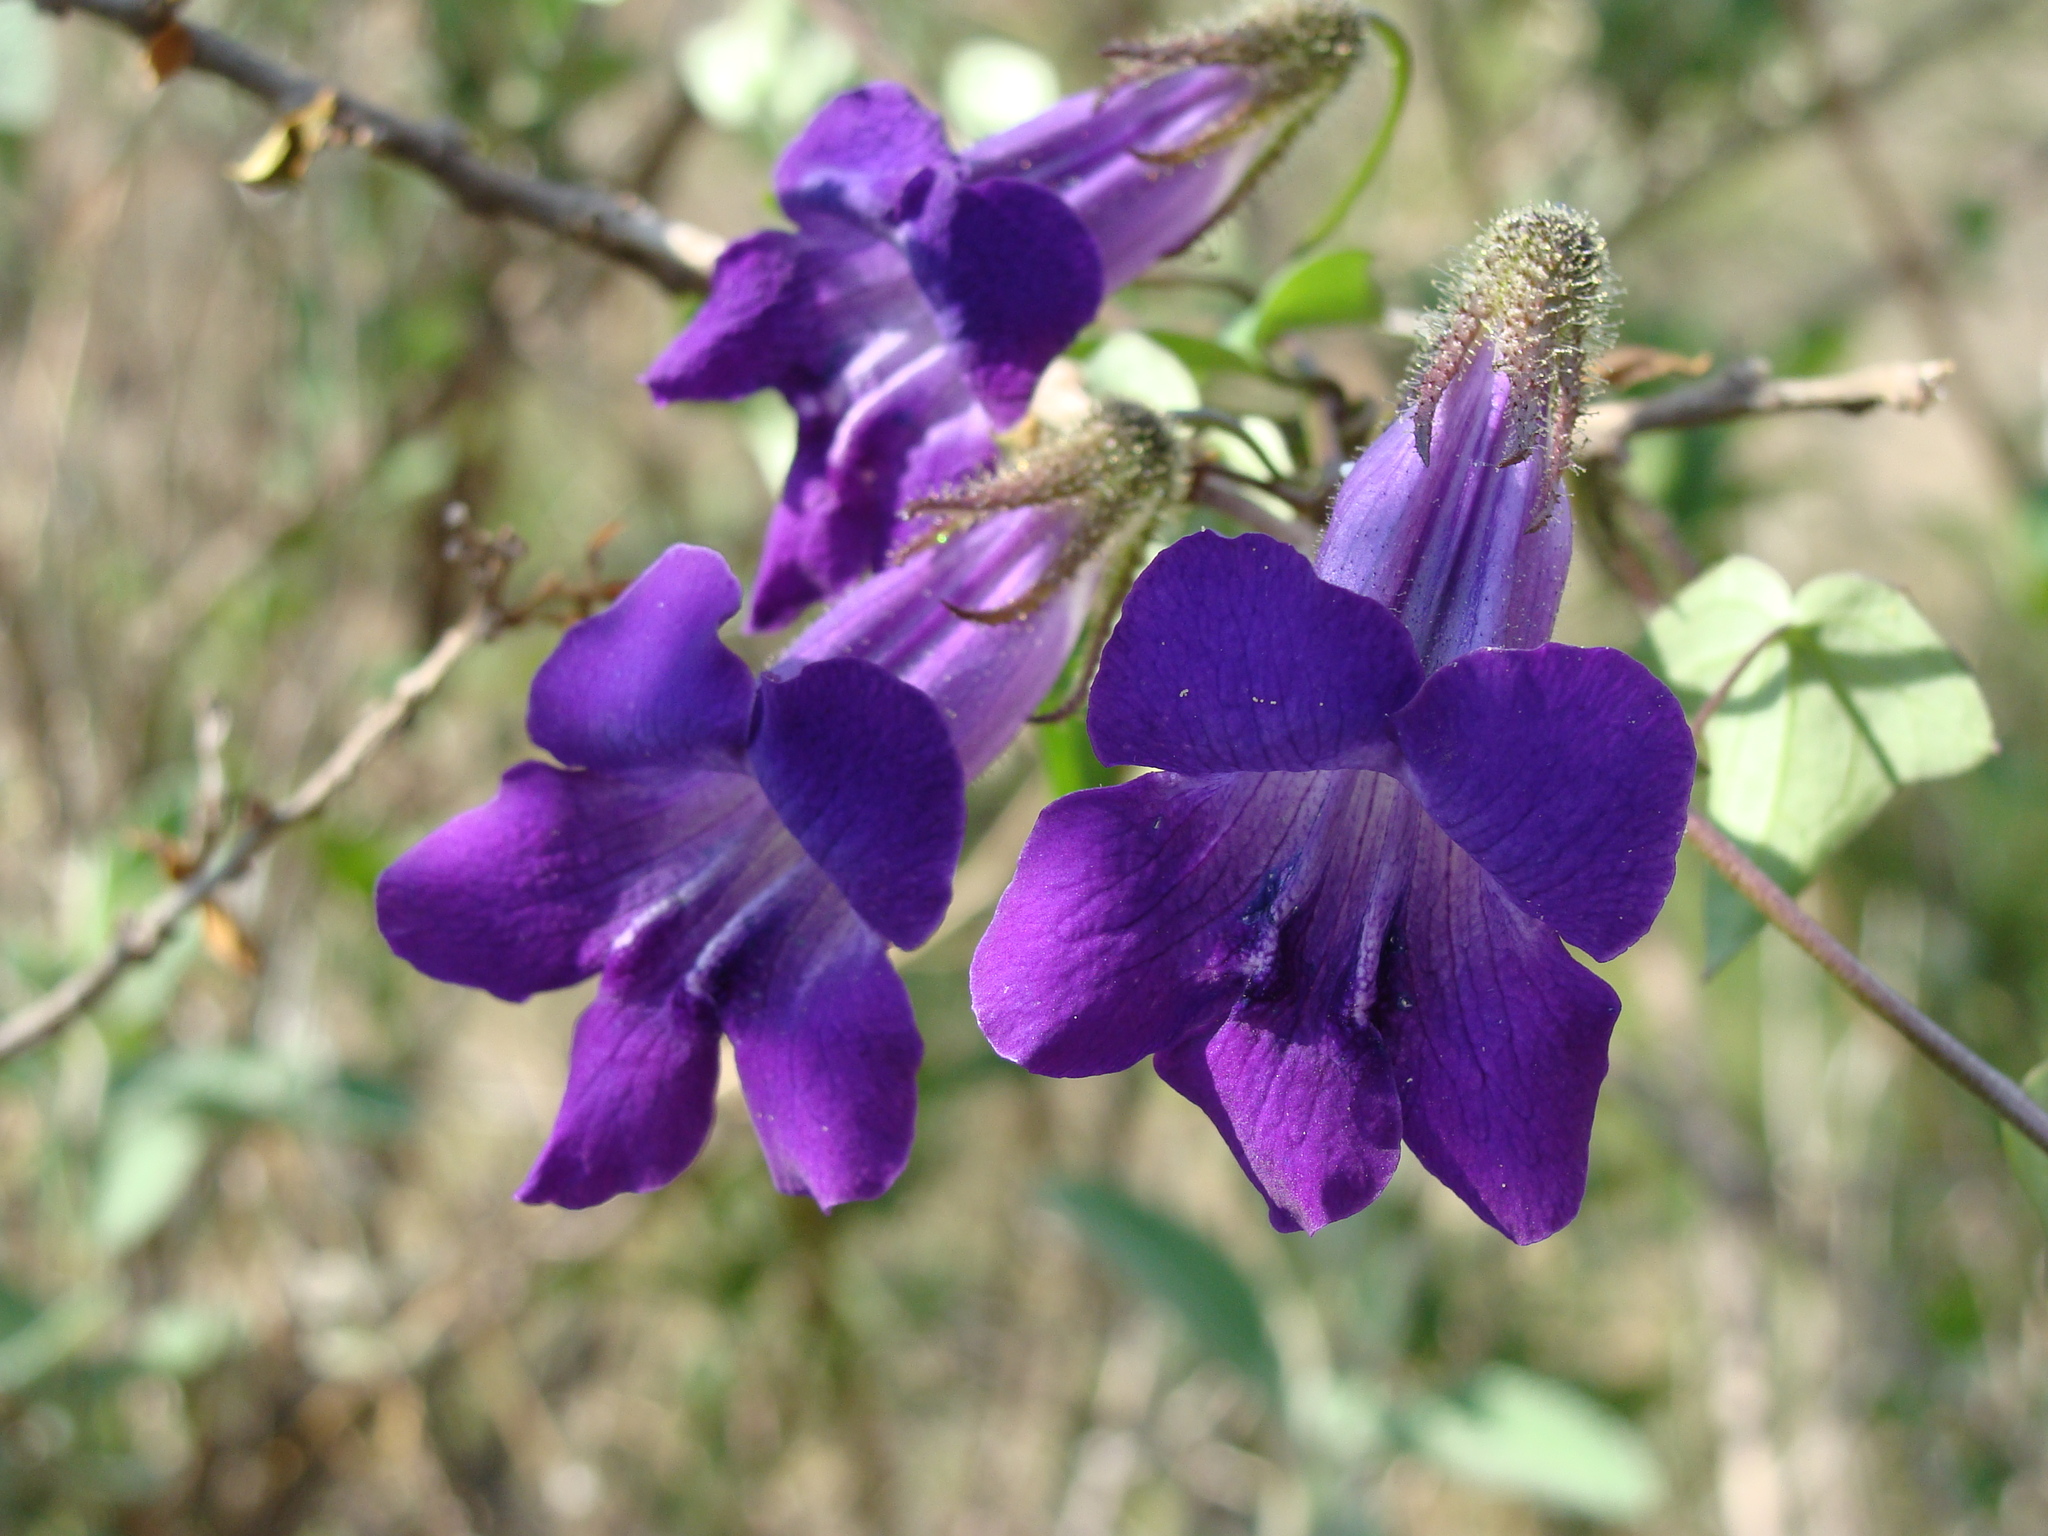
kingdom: Plantae
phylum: Tracheophyta
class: Magnoliopsida
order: Lamiales
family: Plantaginaceae
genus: Maurandya
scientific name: Maurandya barclayana
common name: Mexican viper
